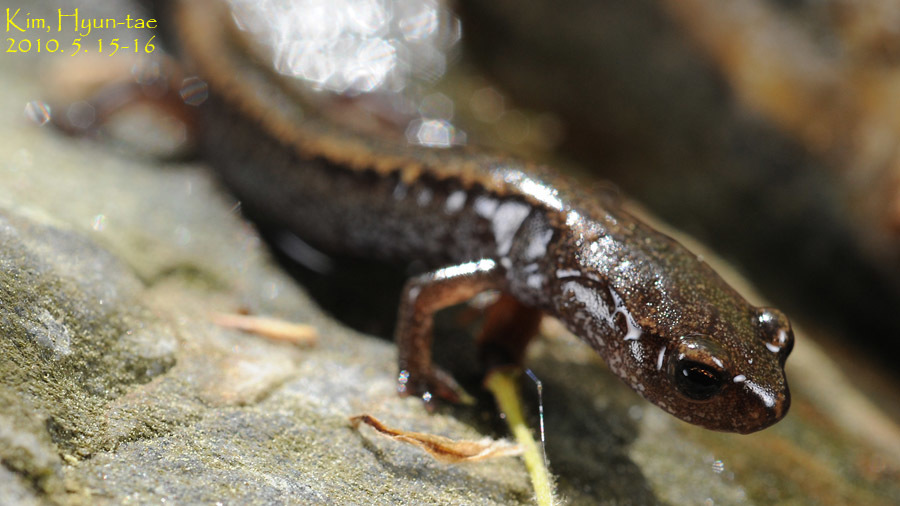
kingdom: Animalia
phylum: Chordata
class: Amphibia
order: Caudata
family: Plethodontidae
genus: Karsenia
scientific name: Karsenia koreana
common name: Korean crevice salamander
